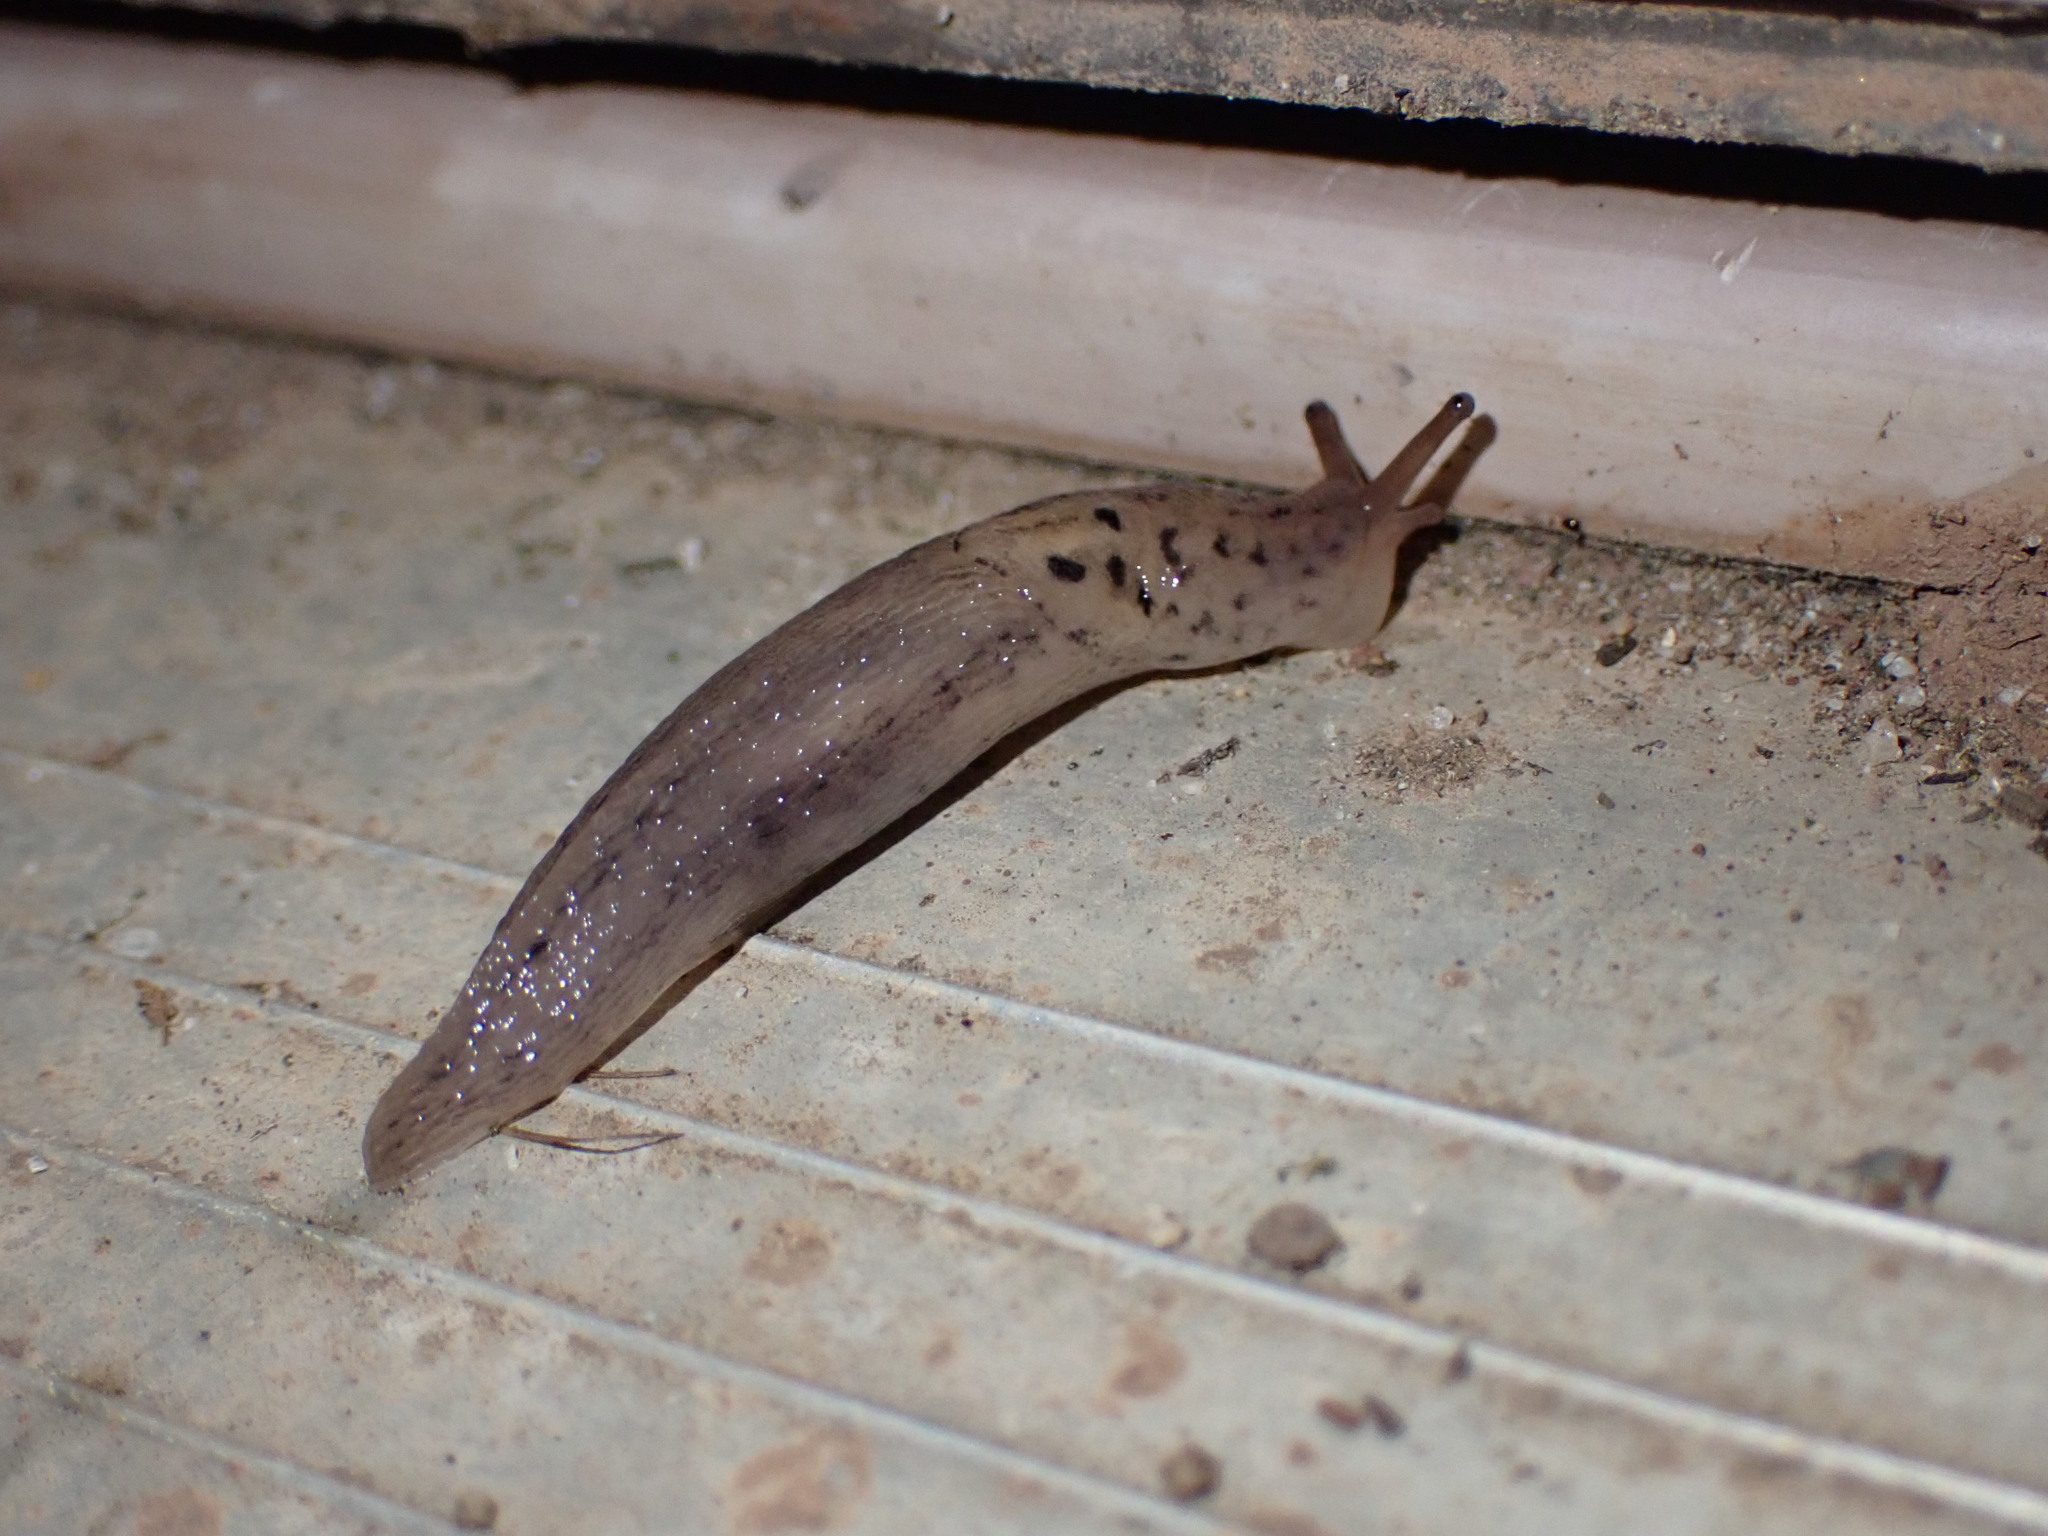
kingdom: Animalia
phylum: Mollusca
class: Gastropoda
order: Stylommatophora
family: Limacidae
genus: Limax
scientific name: Limax maximus
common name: Great grey slug
